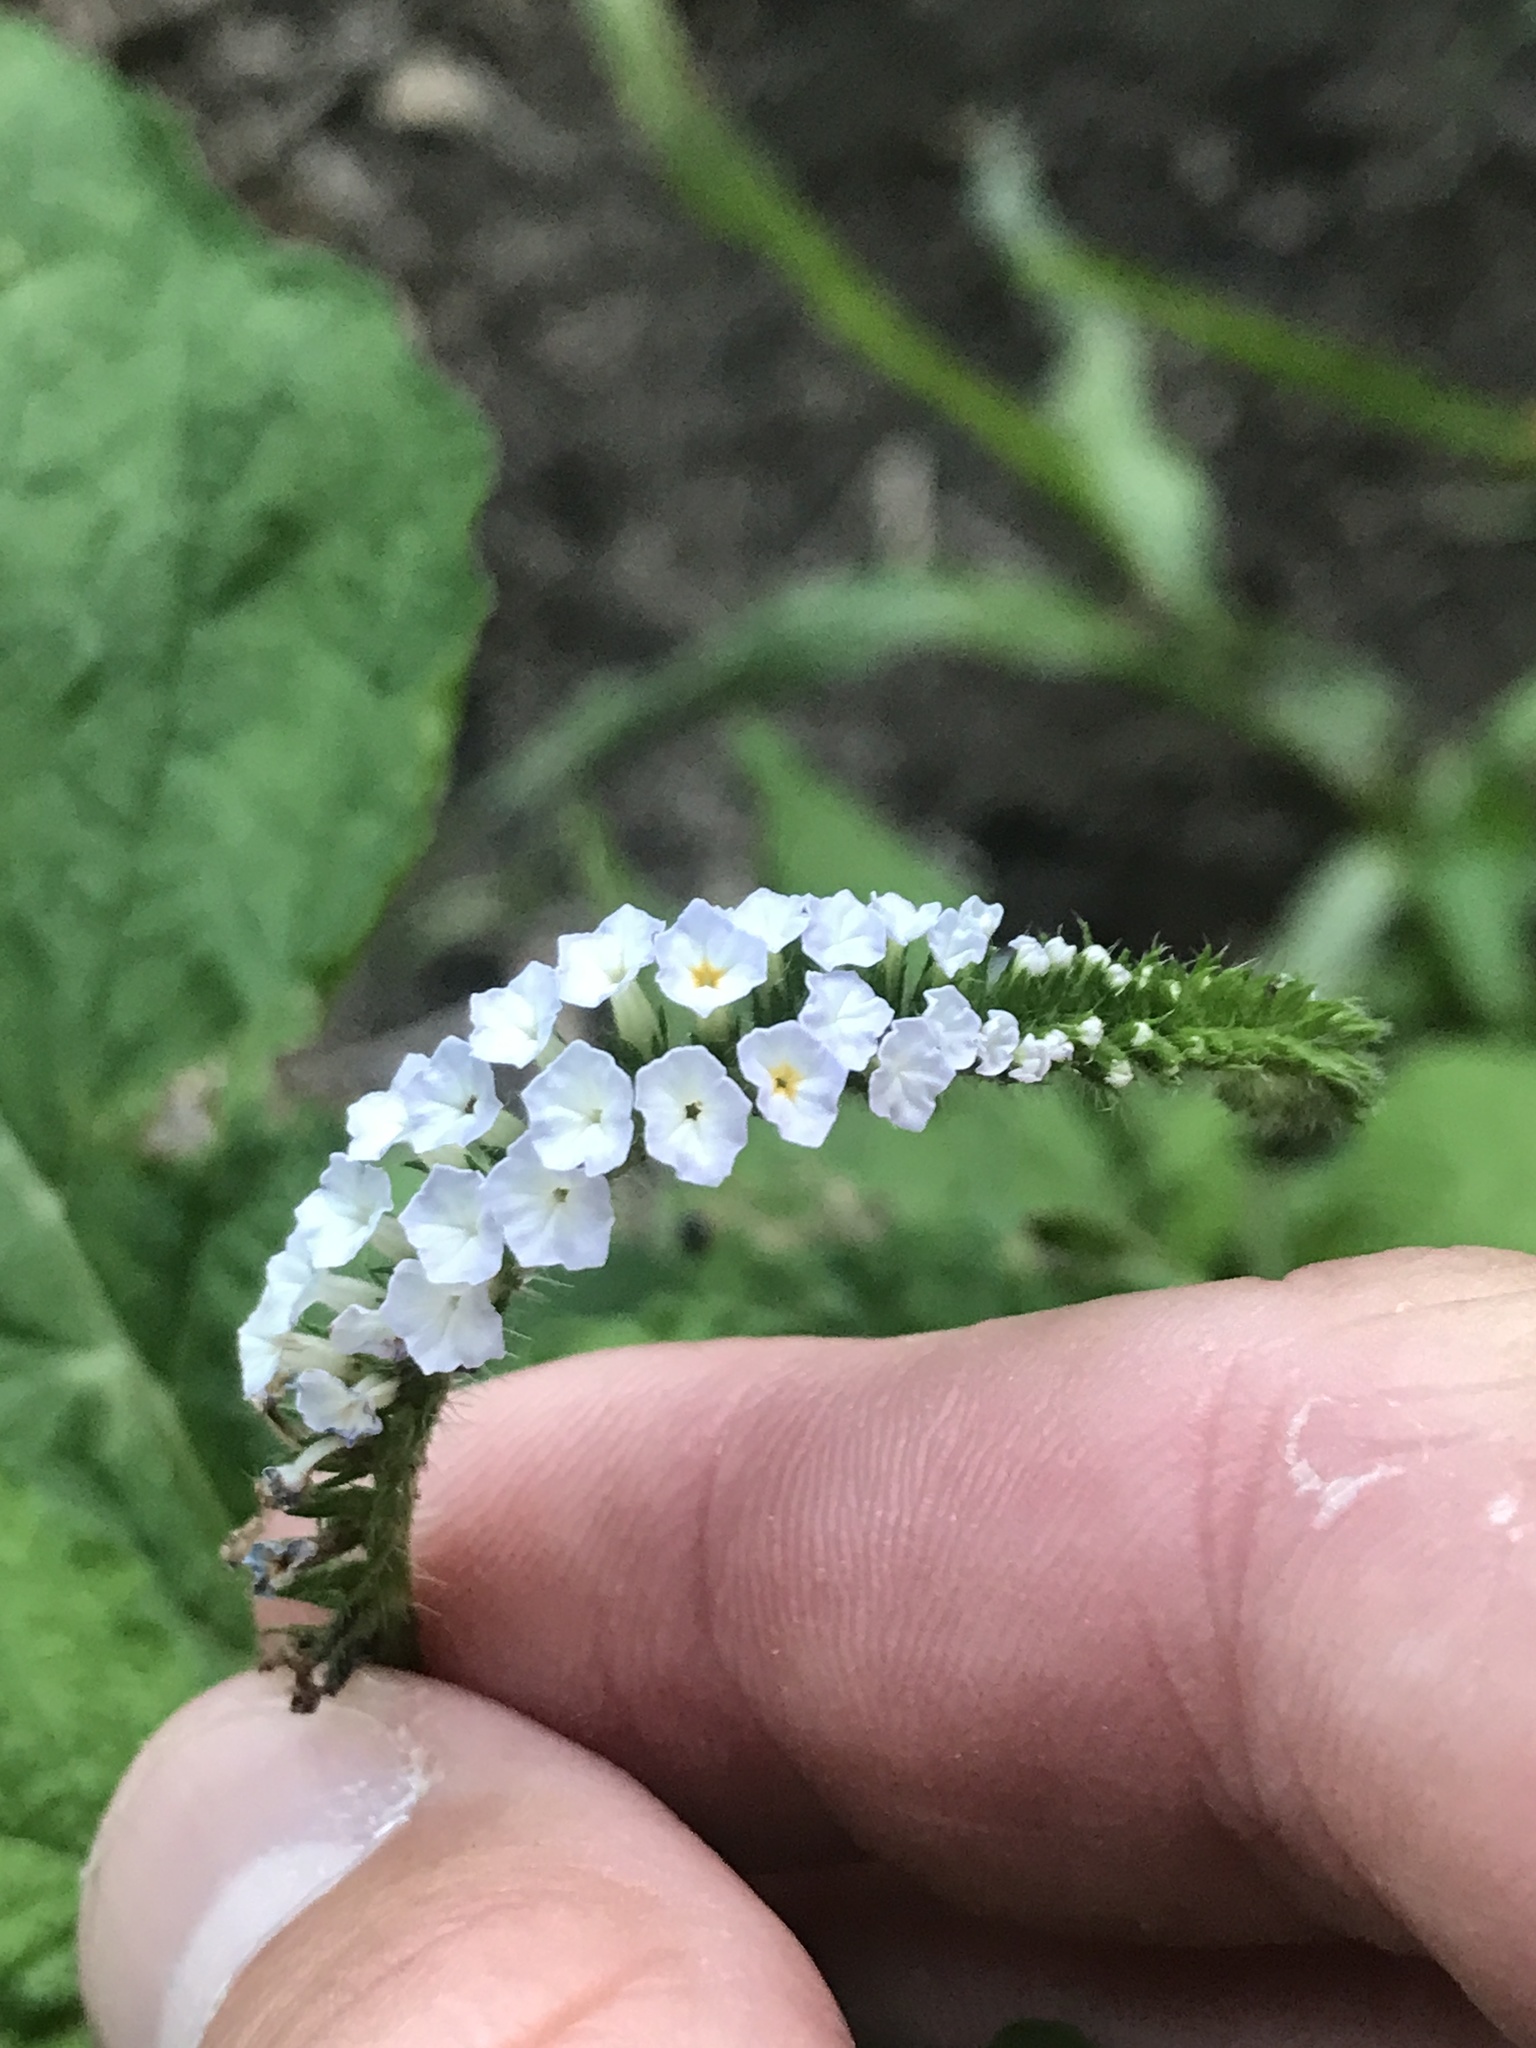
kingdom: Plantae
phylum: Tracheophyta
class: Magnoliopsida
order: Boraginales
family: Heliotropiaceae
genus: Heliotropium
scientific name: Heliotropium indicum
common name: Indian heliotrope
